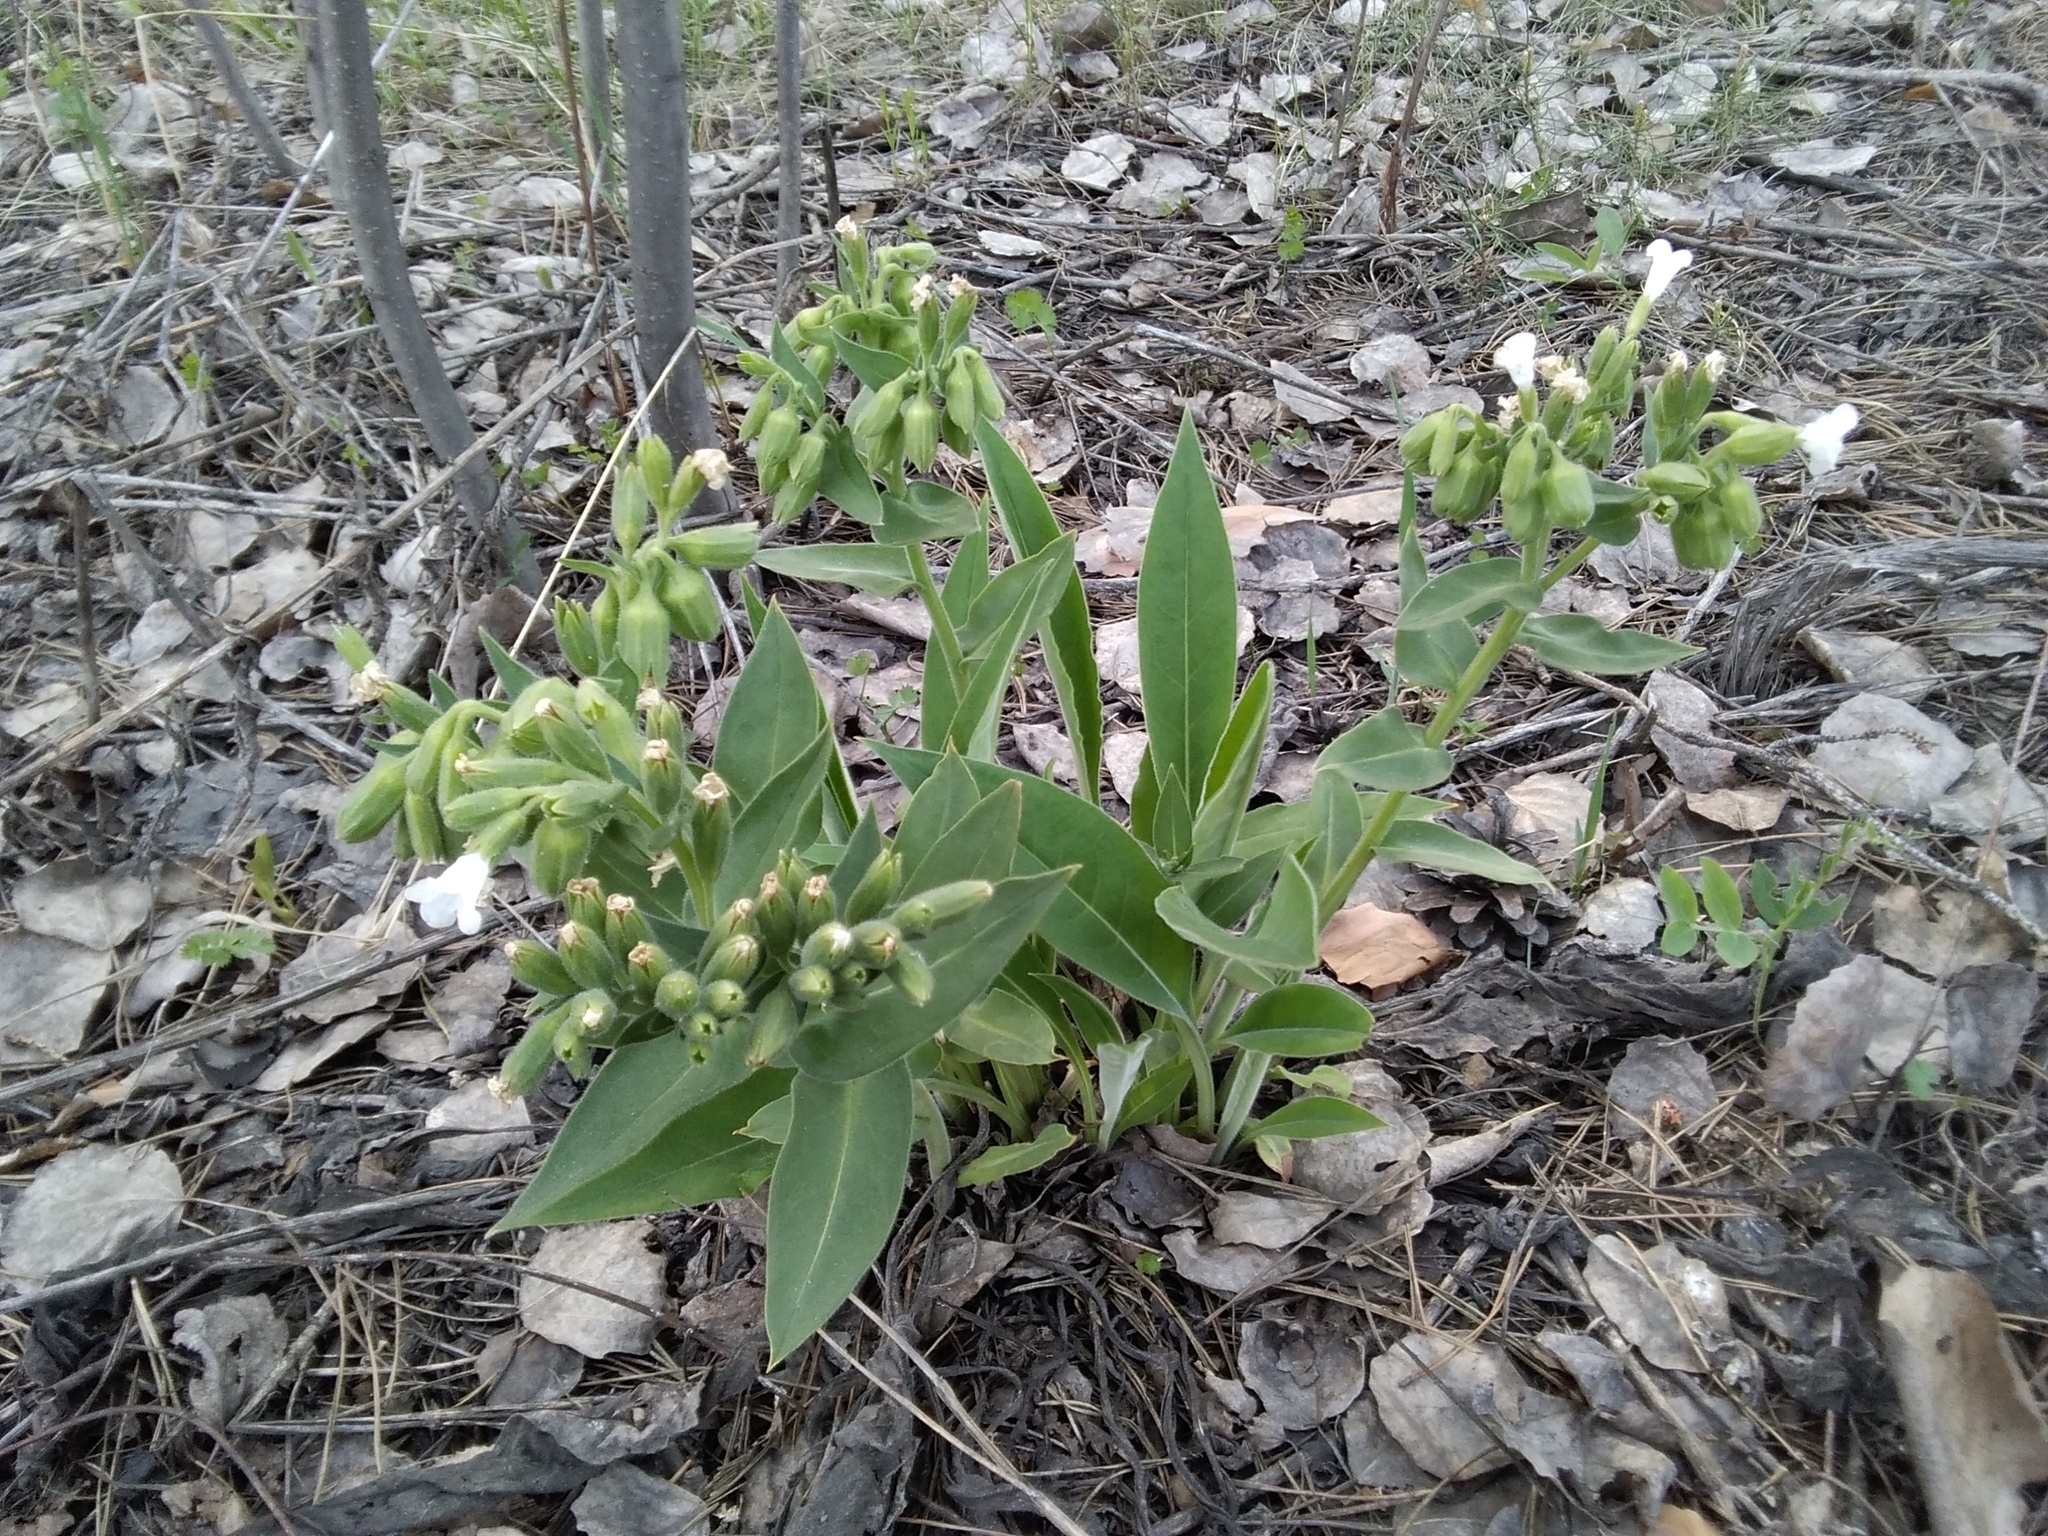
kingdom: Plantae
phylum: Tracheophyta
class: Magnoliopsida
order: Boraginales
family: Boraginaceae
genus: Pulmonaria
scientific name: Pulmonaria mollis
